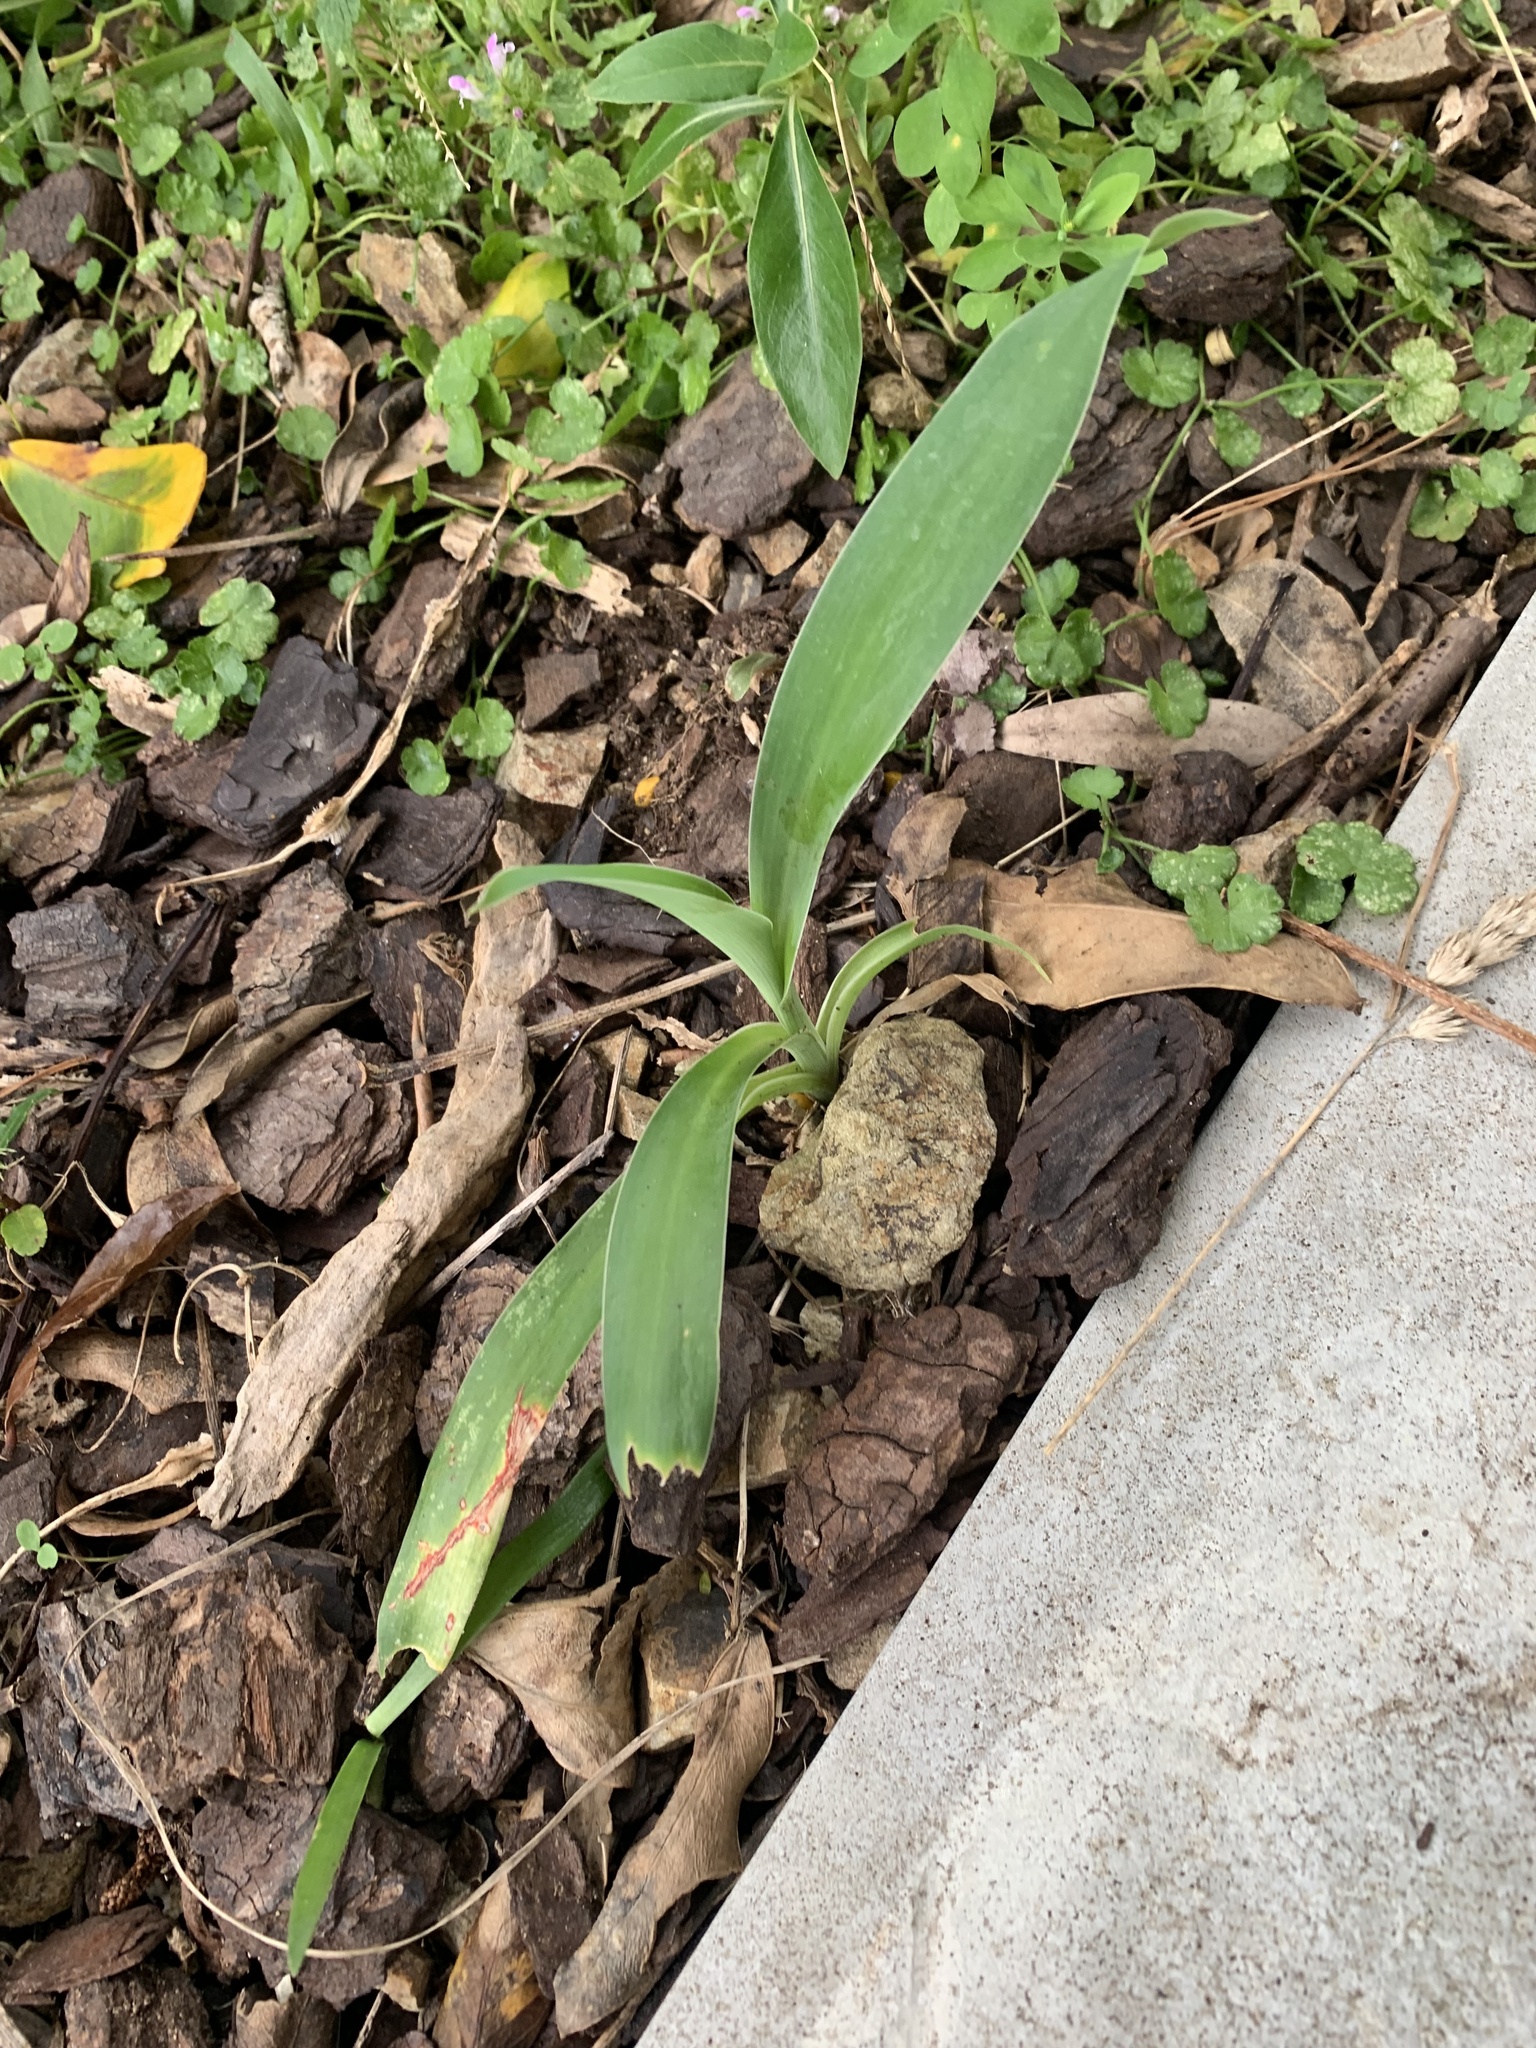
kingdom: Plantae
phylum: Tracheophyta
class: Liliopsida
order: Asparagales
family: Asparagaceae
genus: Arthropodium
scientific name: Arthropodium cirratum
